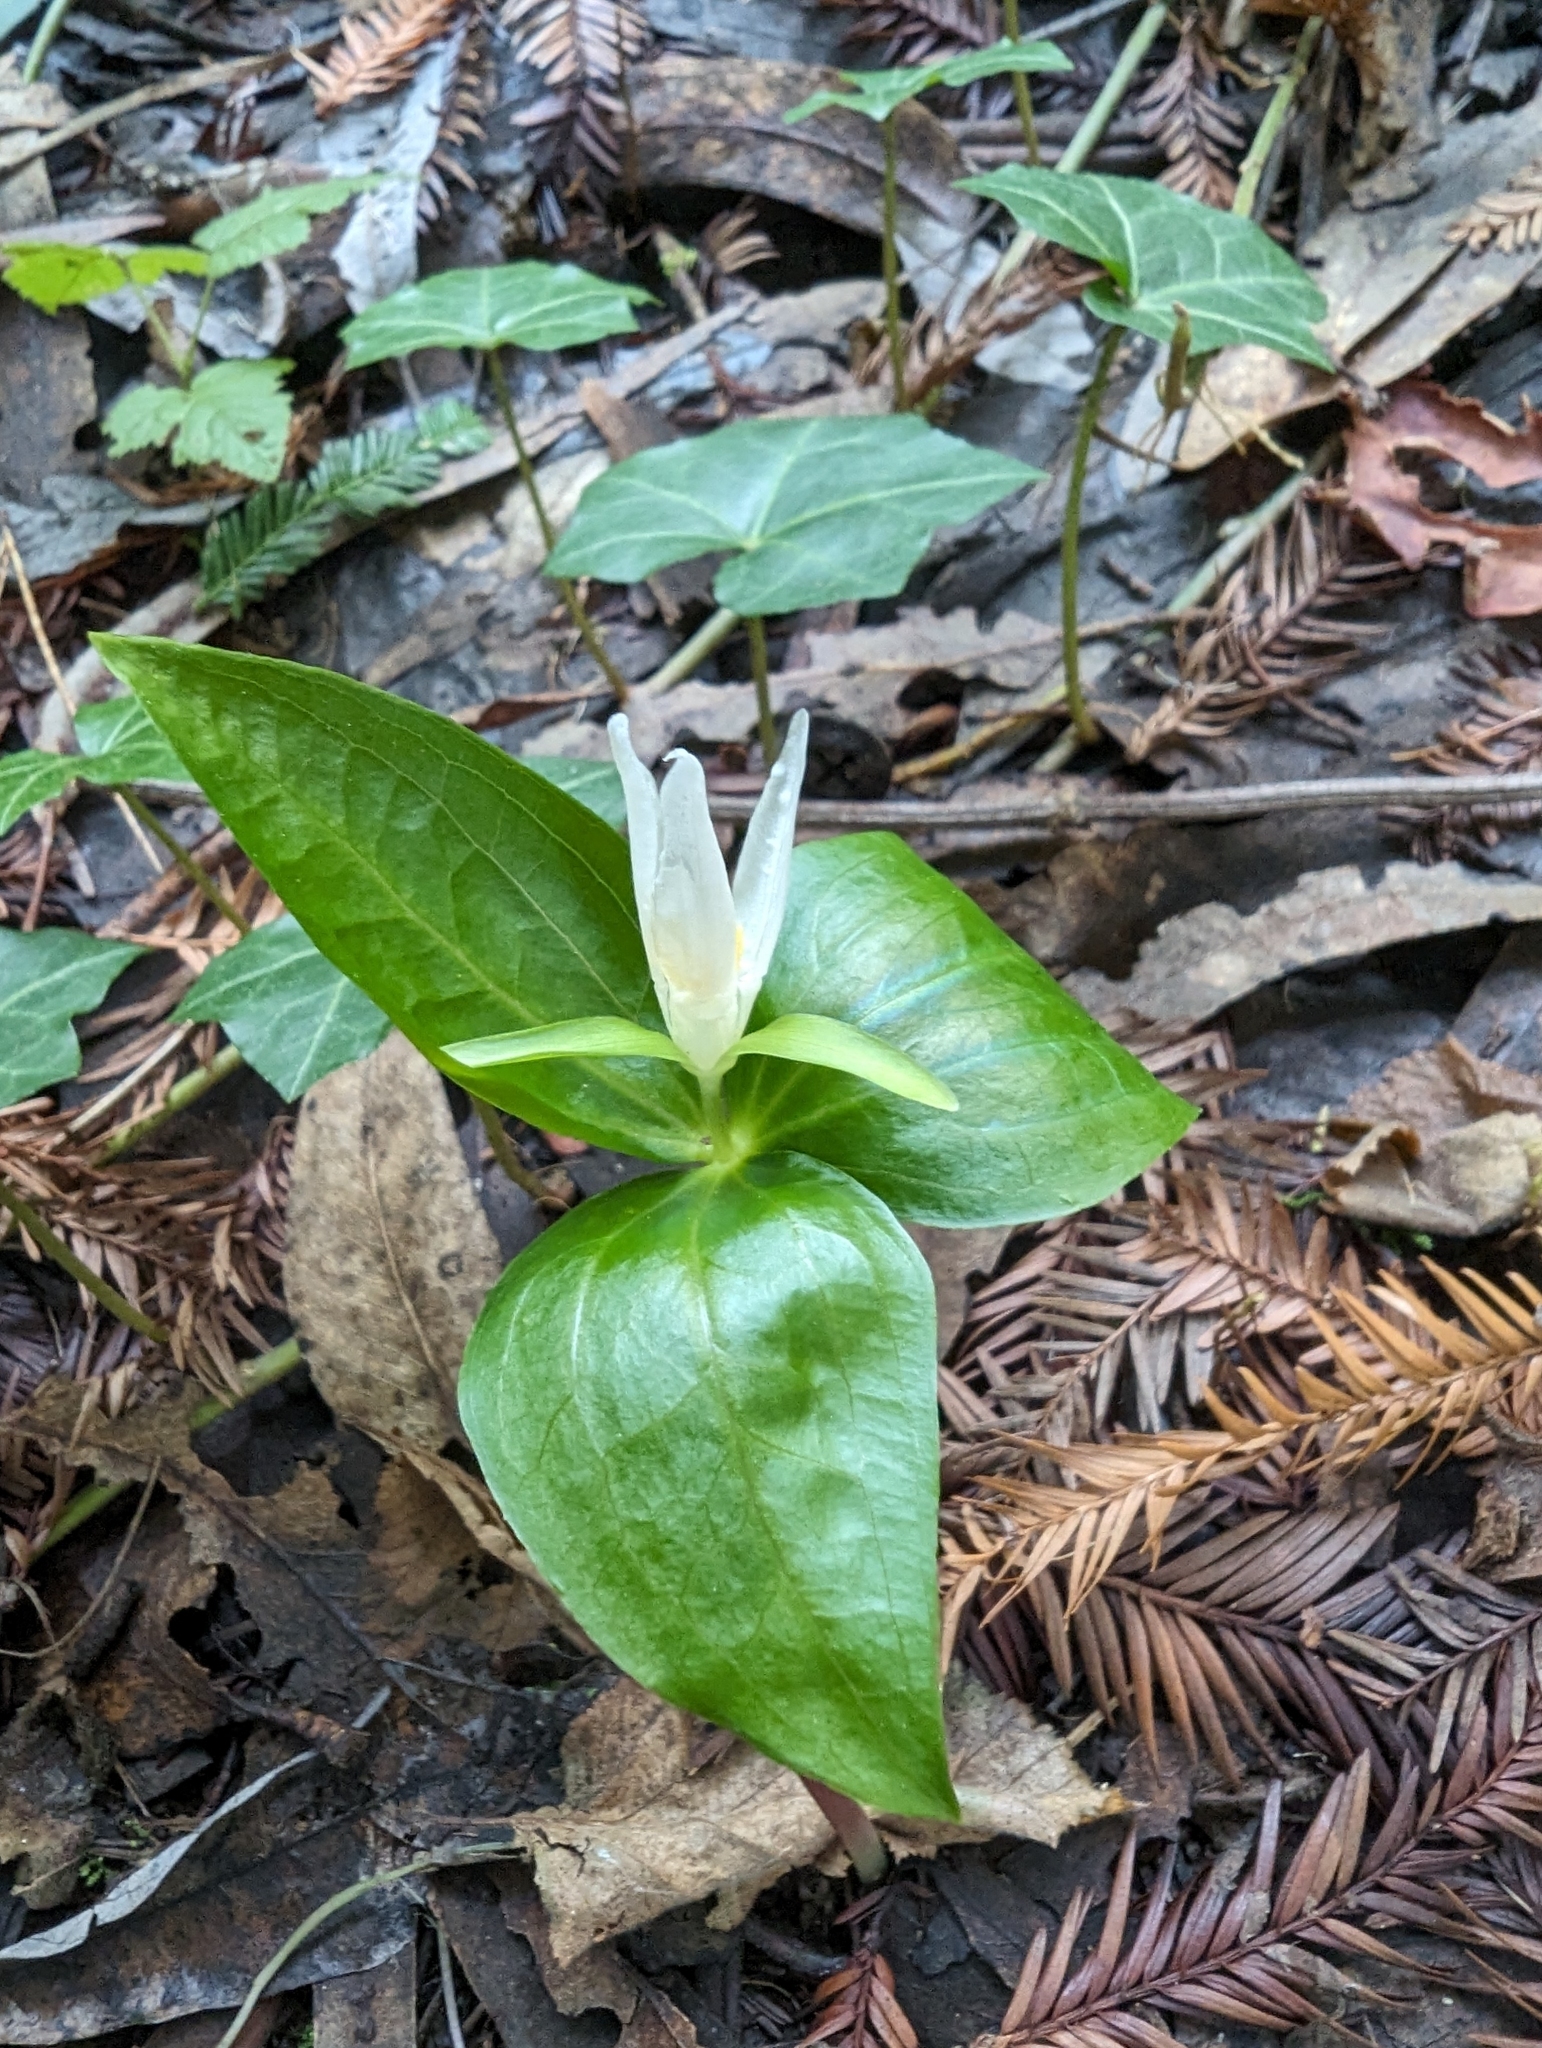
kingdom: Plantae
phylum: Tracheophyta
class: Liliopsida
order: Liliales
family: Melanthiaceae
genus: Trillium
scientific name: Trillium ovatum
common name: Pacific trillium
